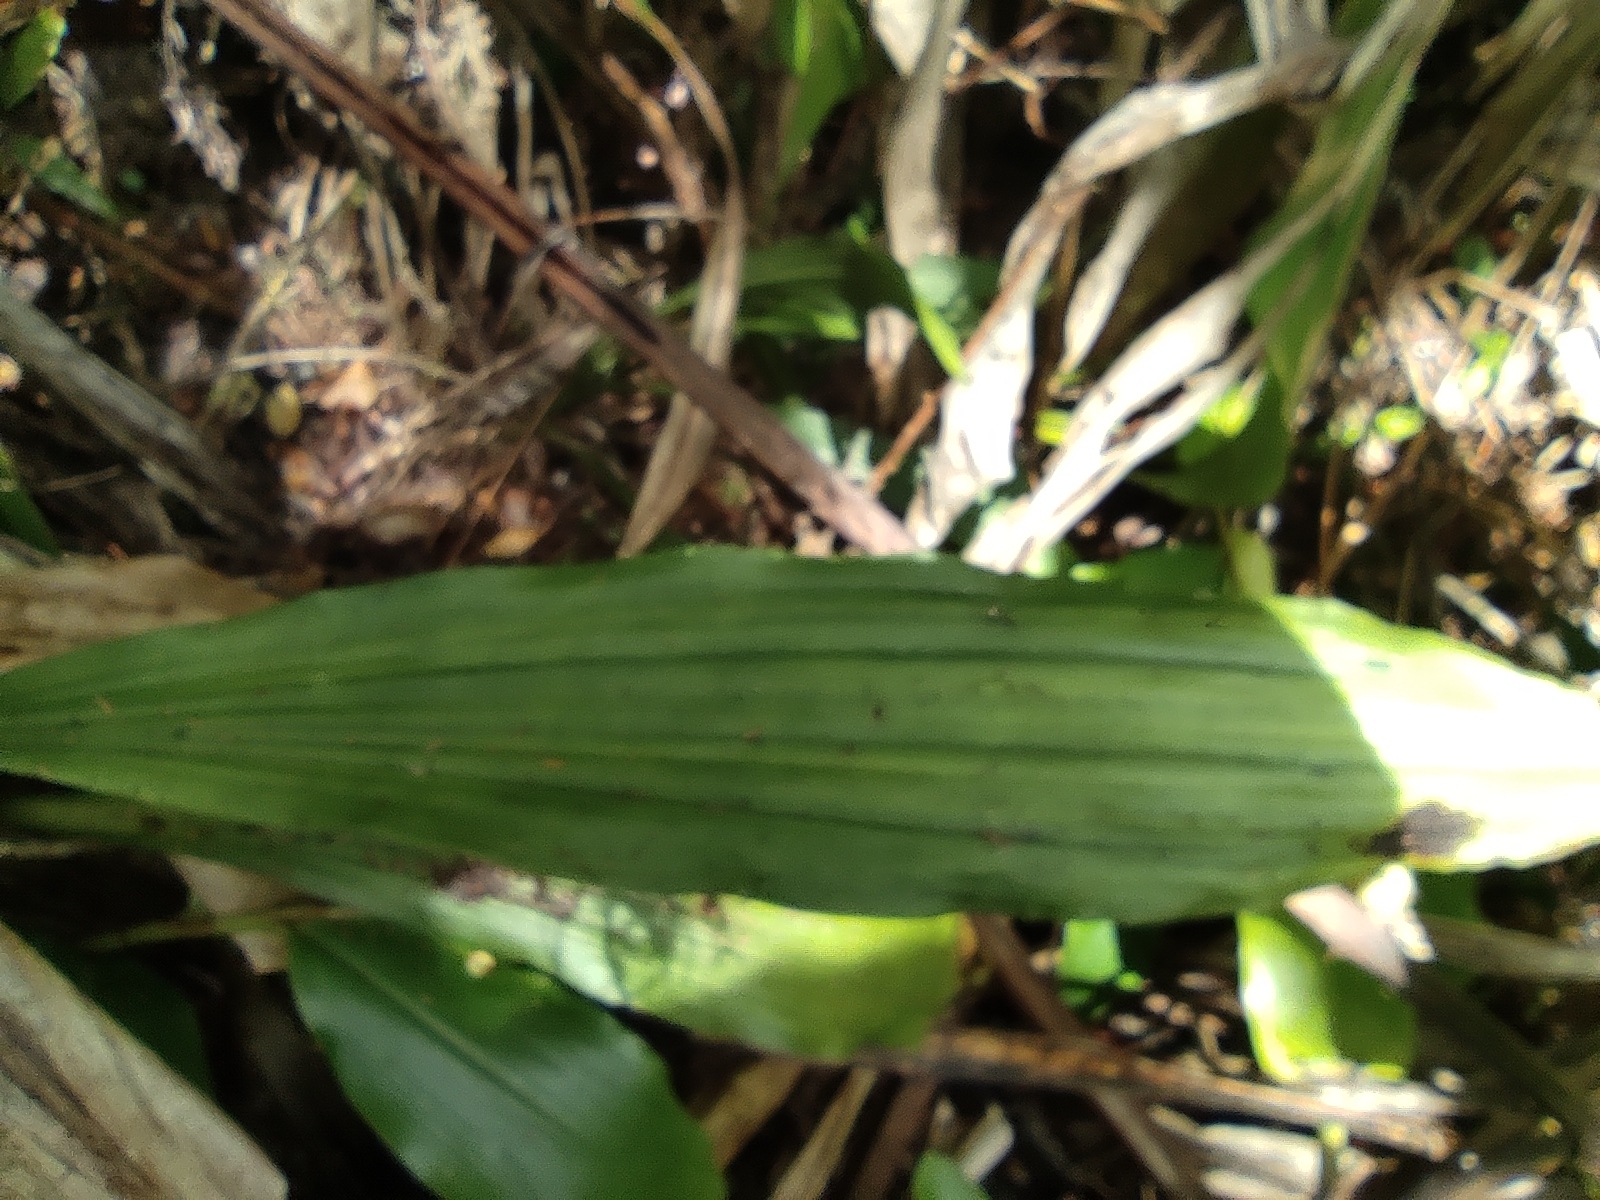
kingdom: Plantae
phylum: Tracheophyta
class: Liliopsida
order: Asparagales
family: Orchidaceae
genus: Calanthe
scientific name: Calanthe sylvatica
